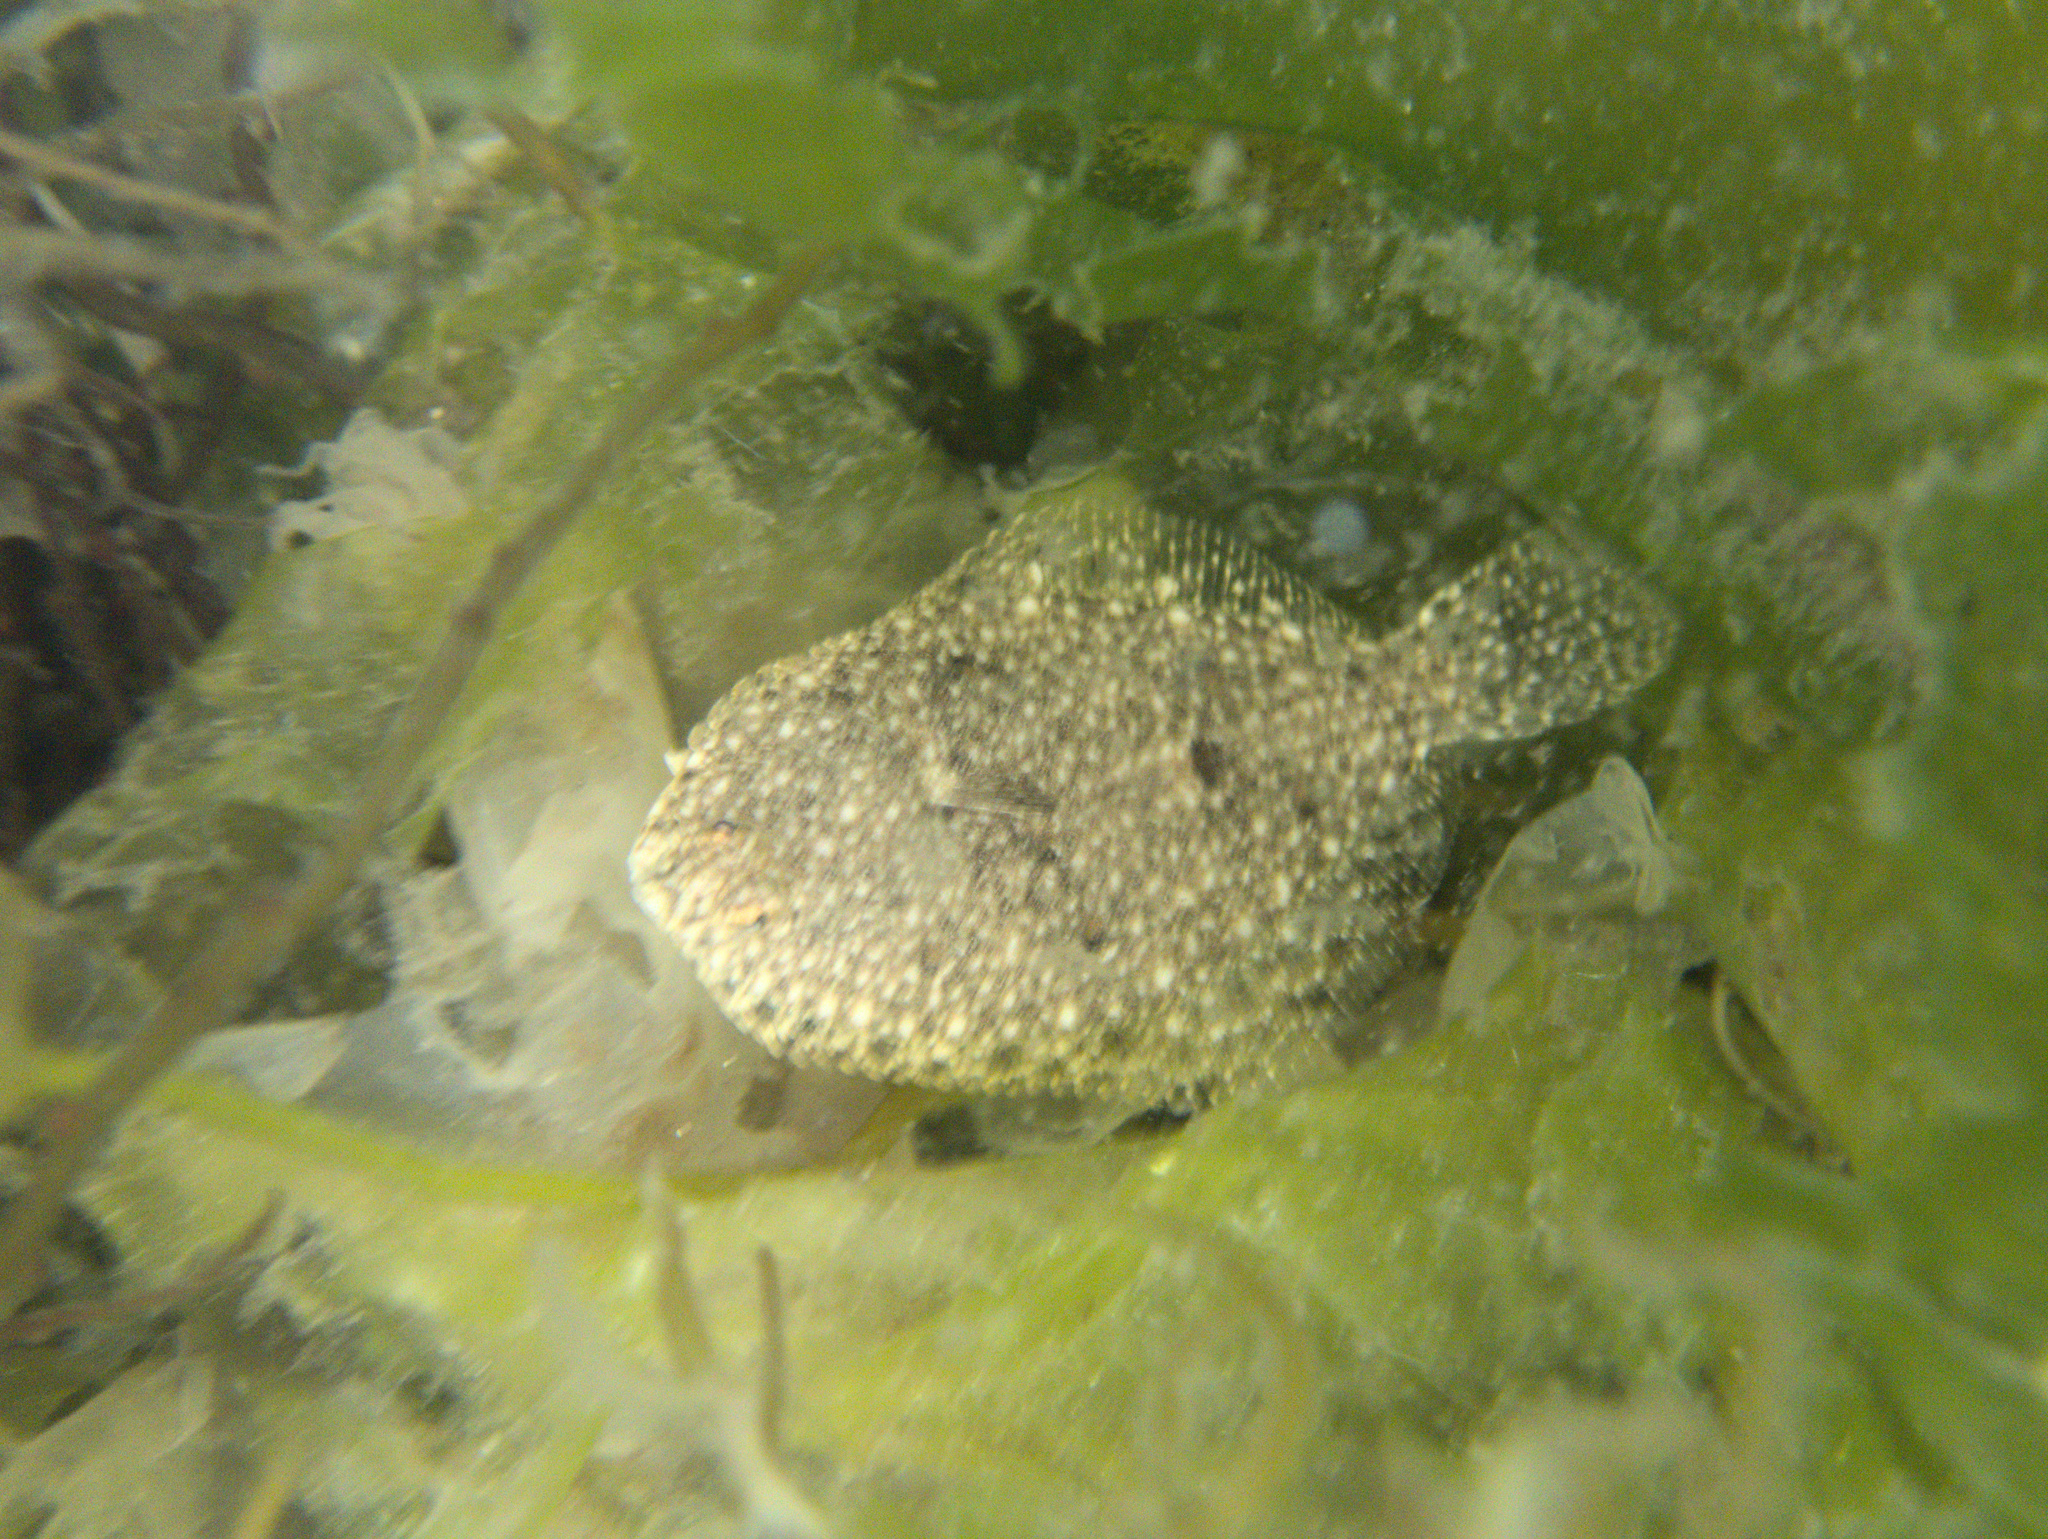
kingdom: Animalia
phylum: Chordata
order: Pleuronectiformes
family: Pleuronectidae
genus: Rhombosolea
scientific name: Rhombosolea plebeia
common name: Dab
